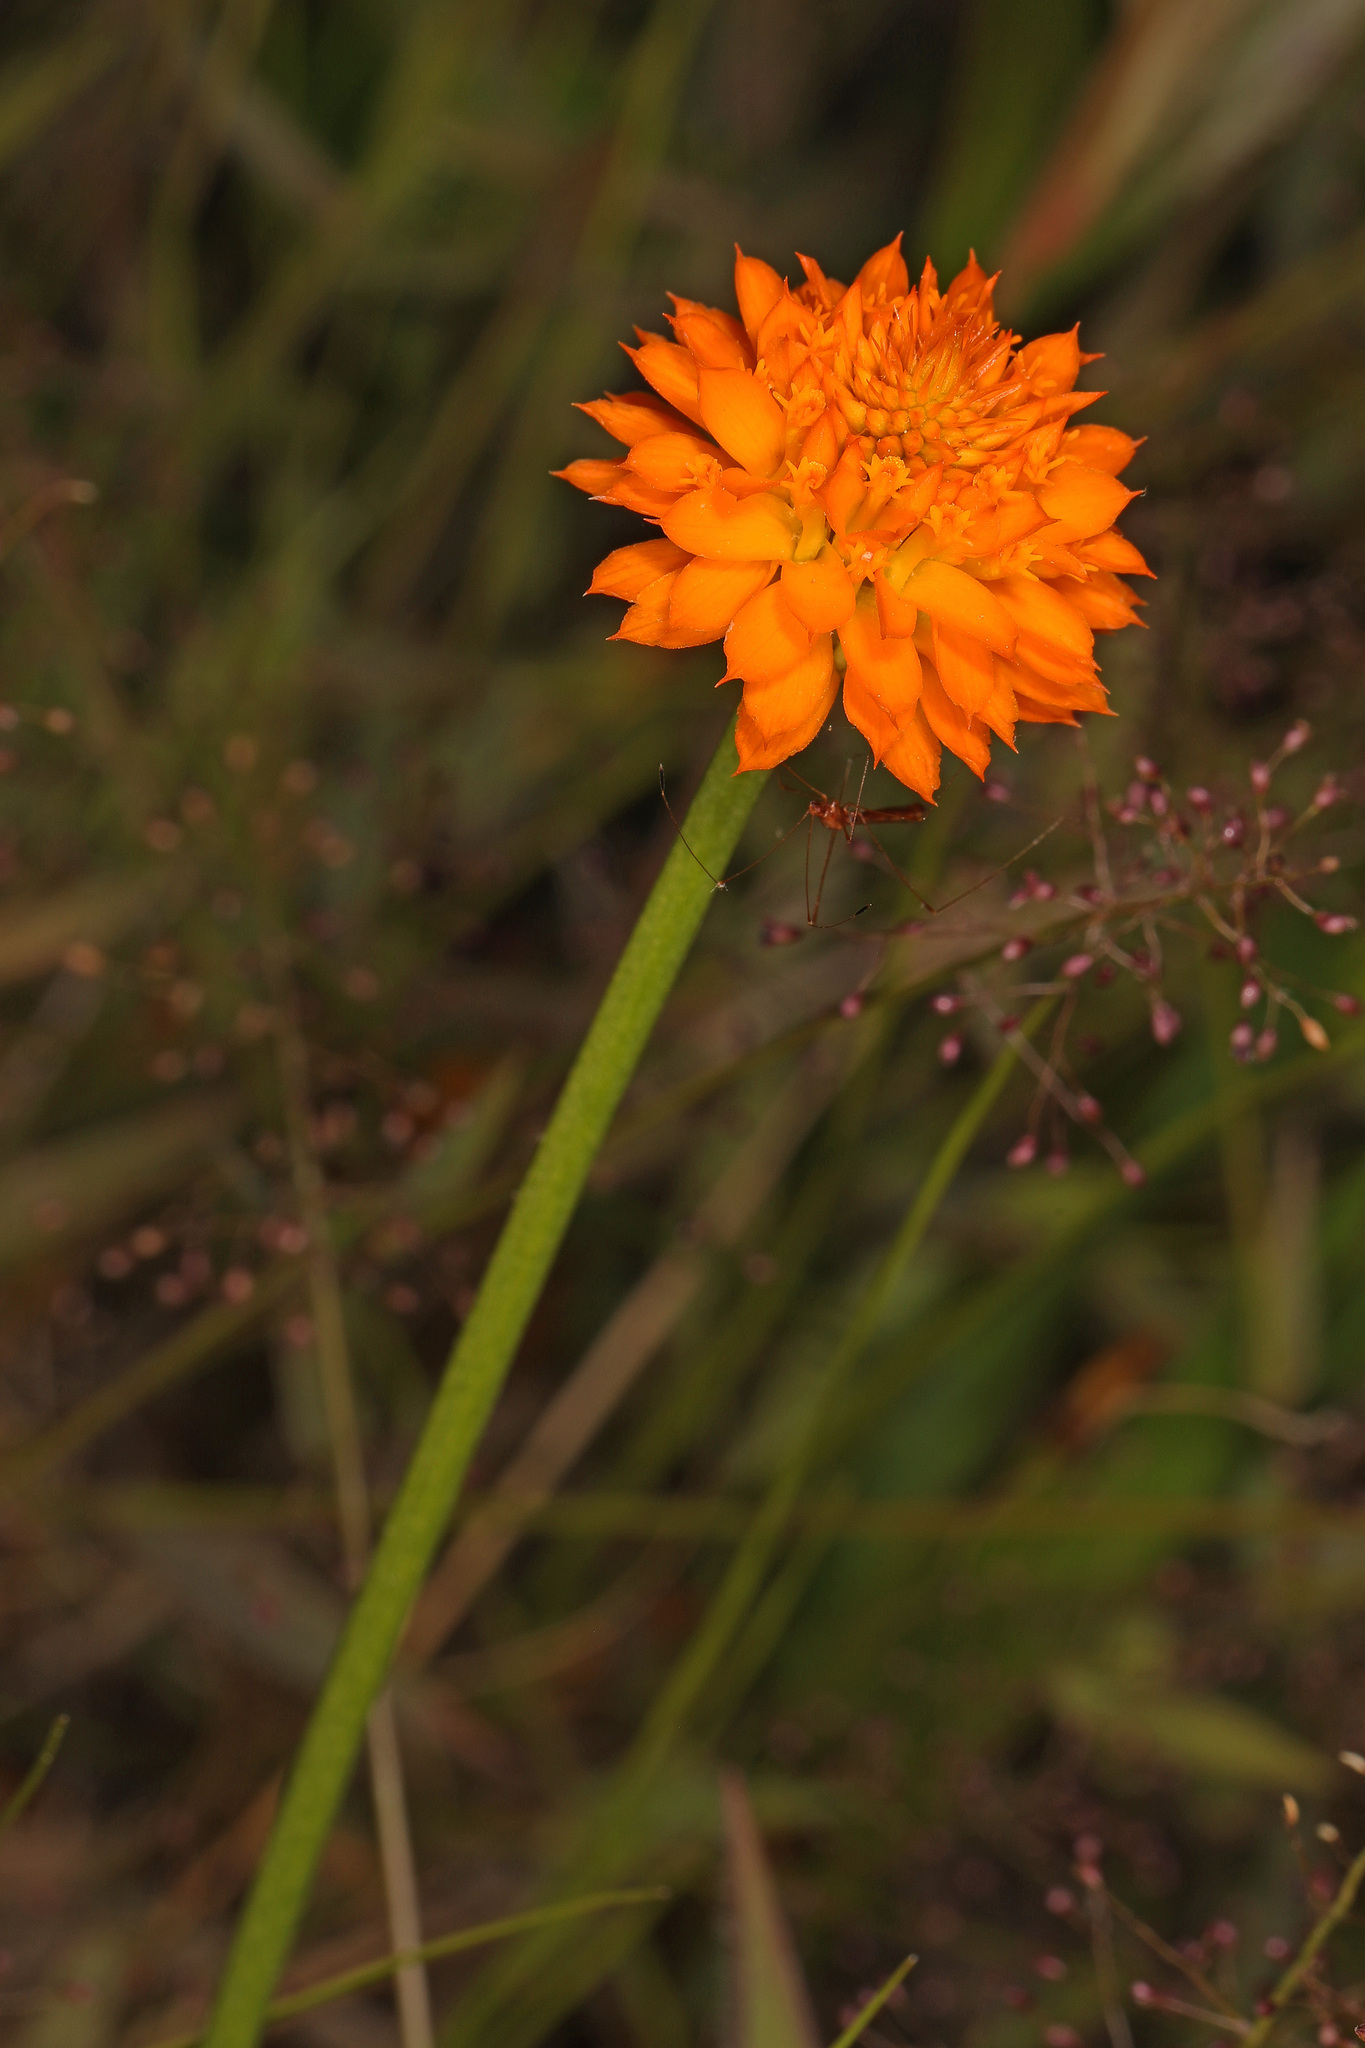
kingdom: Plantae
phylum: Tracheophyta
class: Magnoliopsida
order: Fabales
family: Polygalaceae
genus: Polygala
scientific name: Polygala lutea
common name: Orange milkwort
